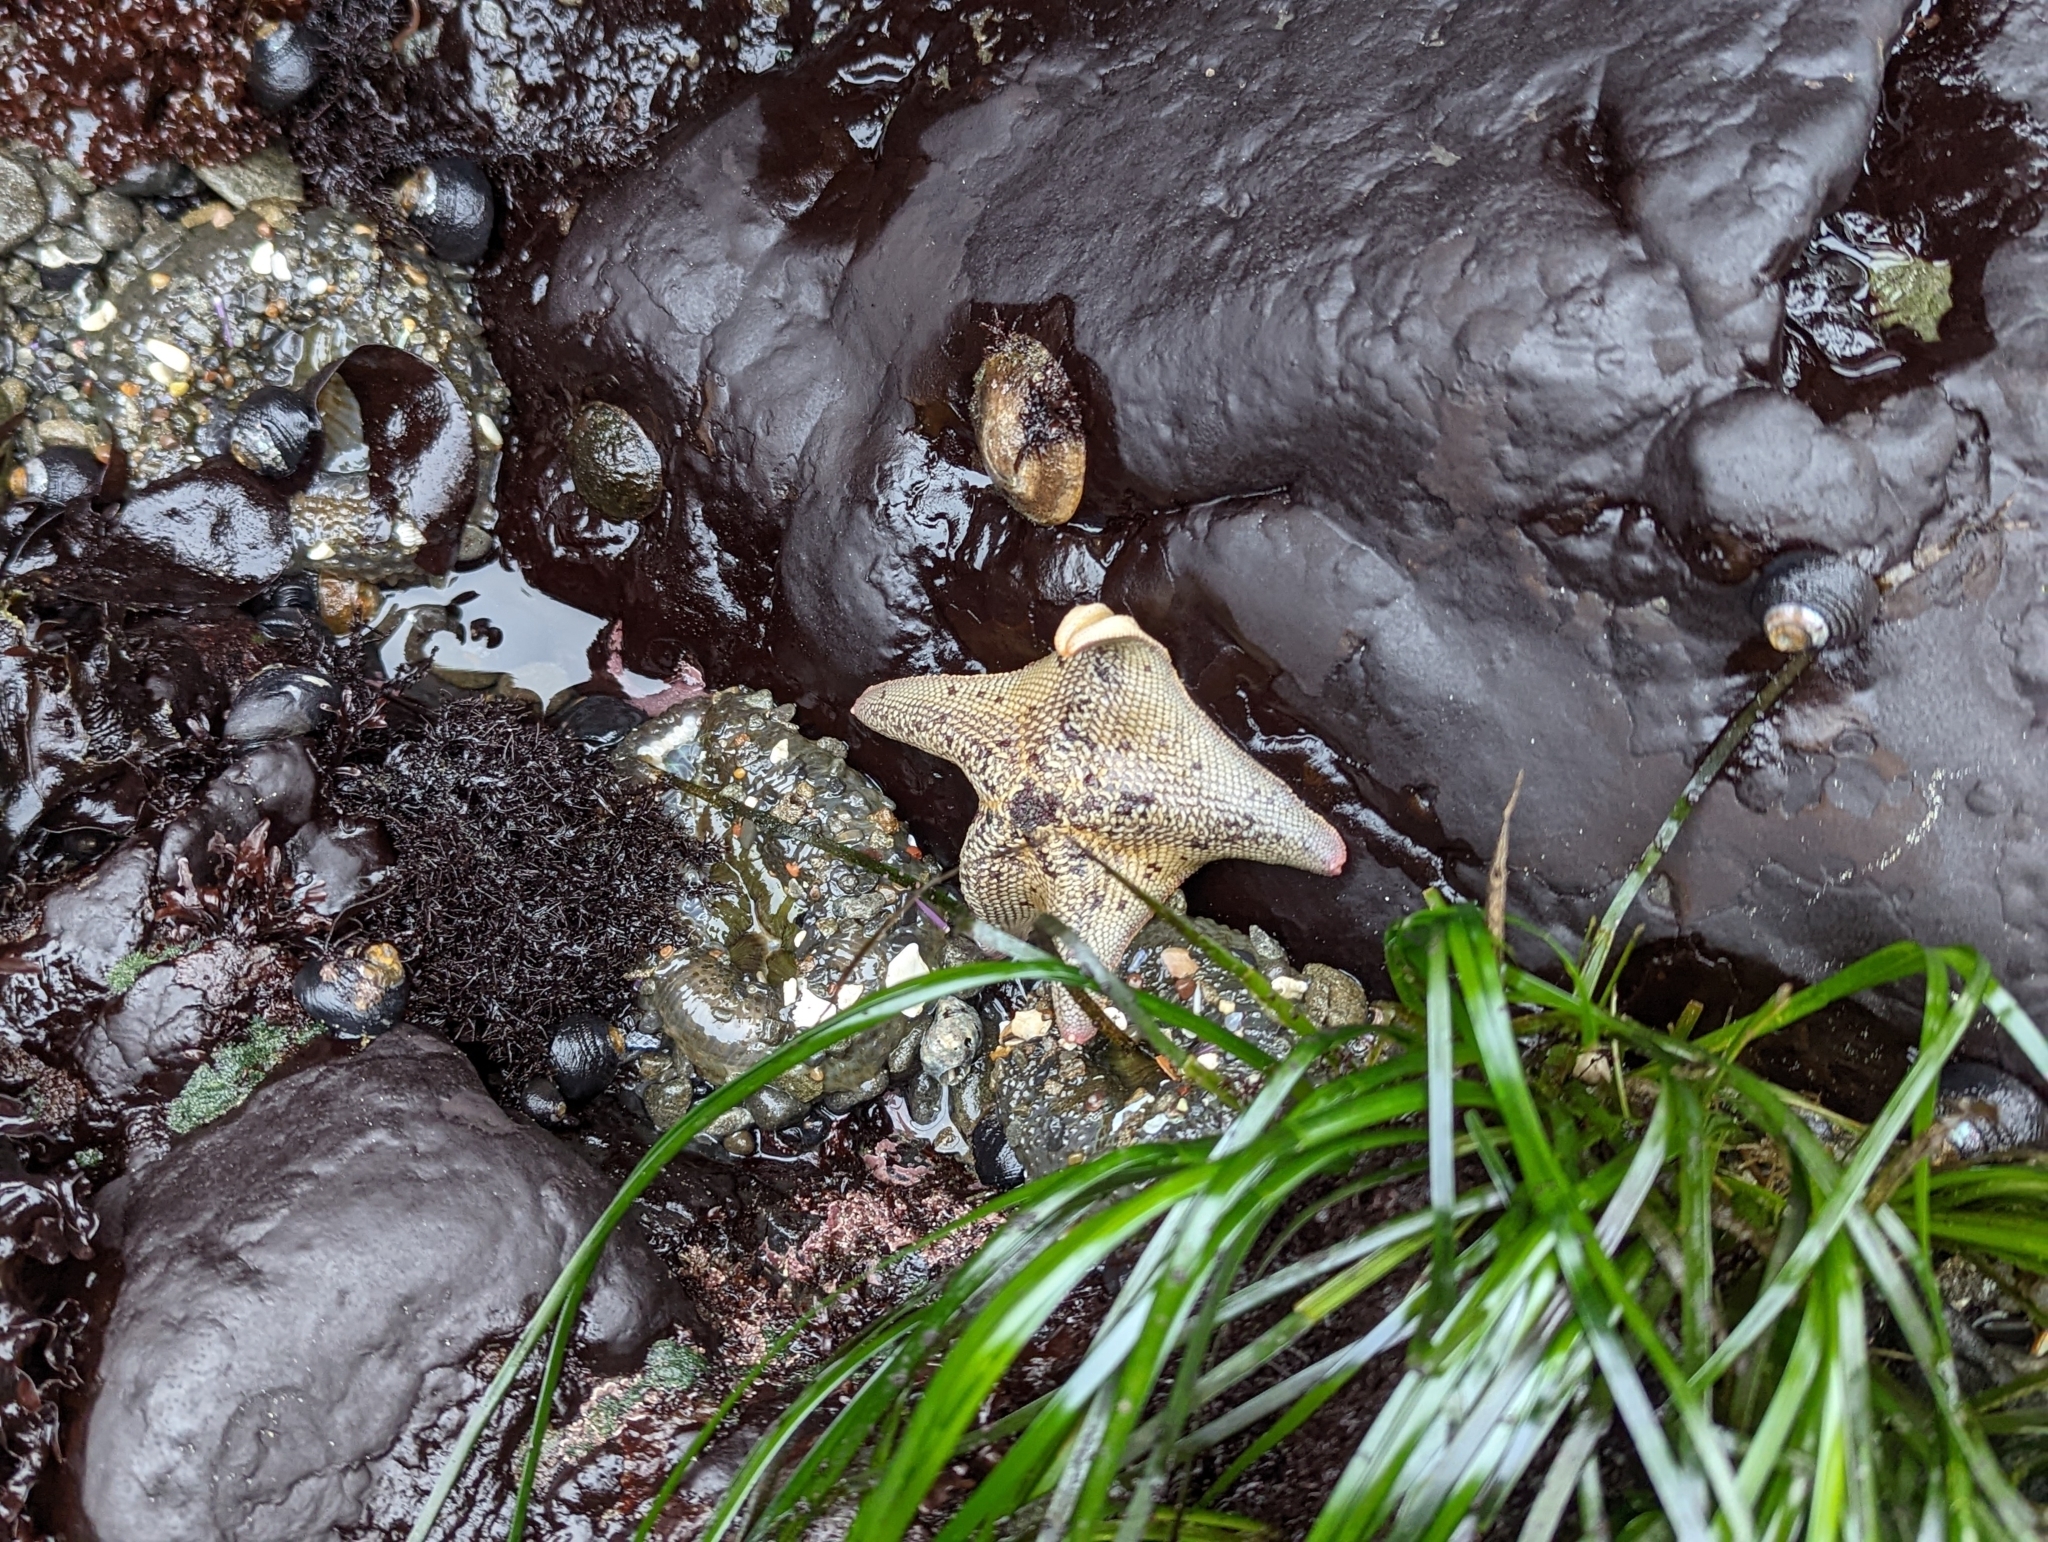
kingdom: Animalia
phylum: Echinodermata
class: Asteroidea
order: Valvatida
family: Asterinidae
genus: Patiria
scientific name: Patiria miniata
